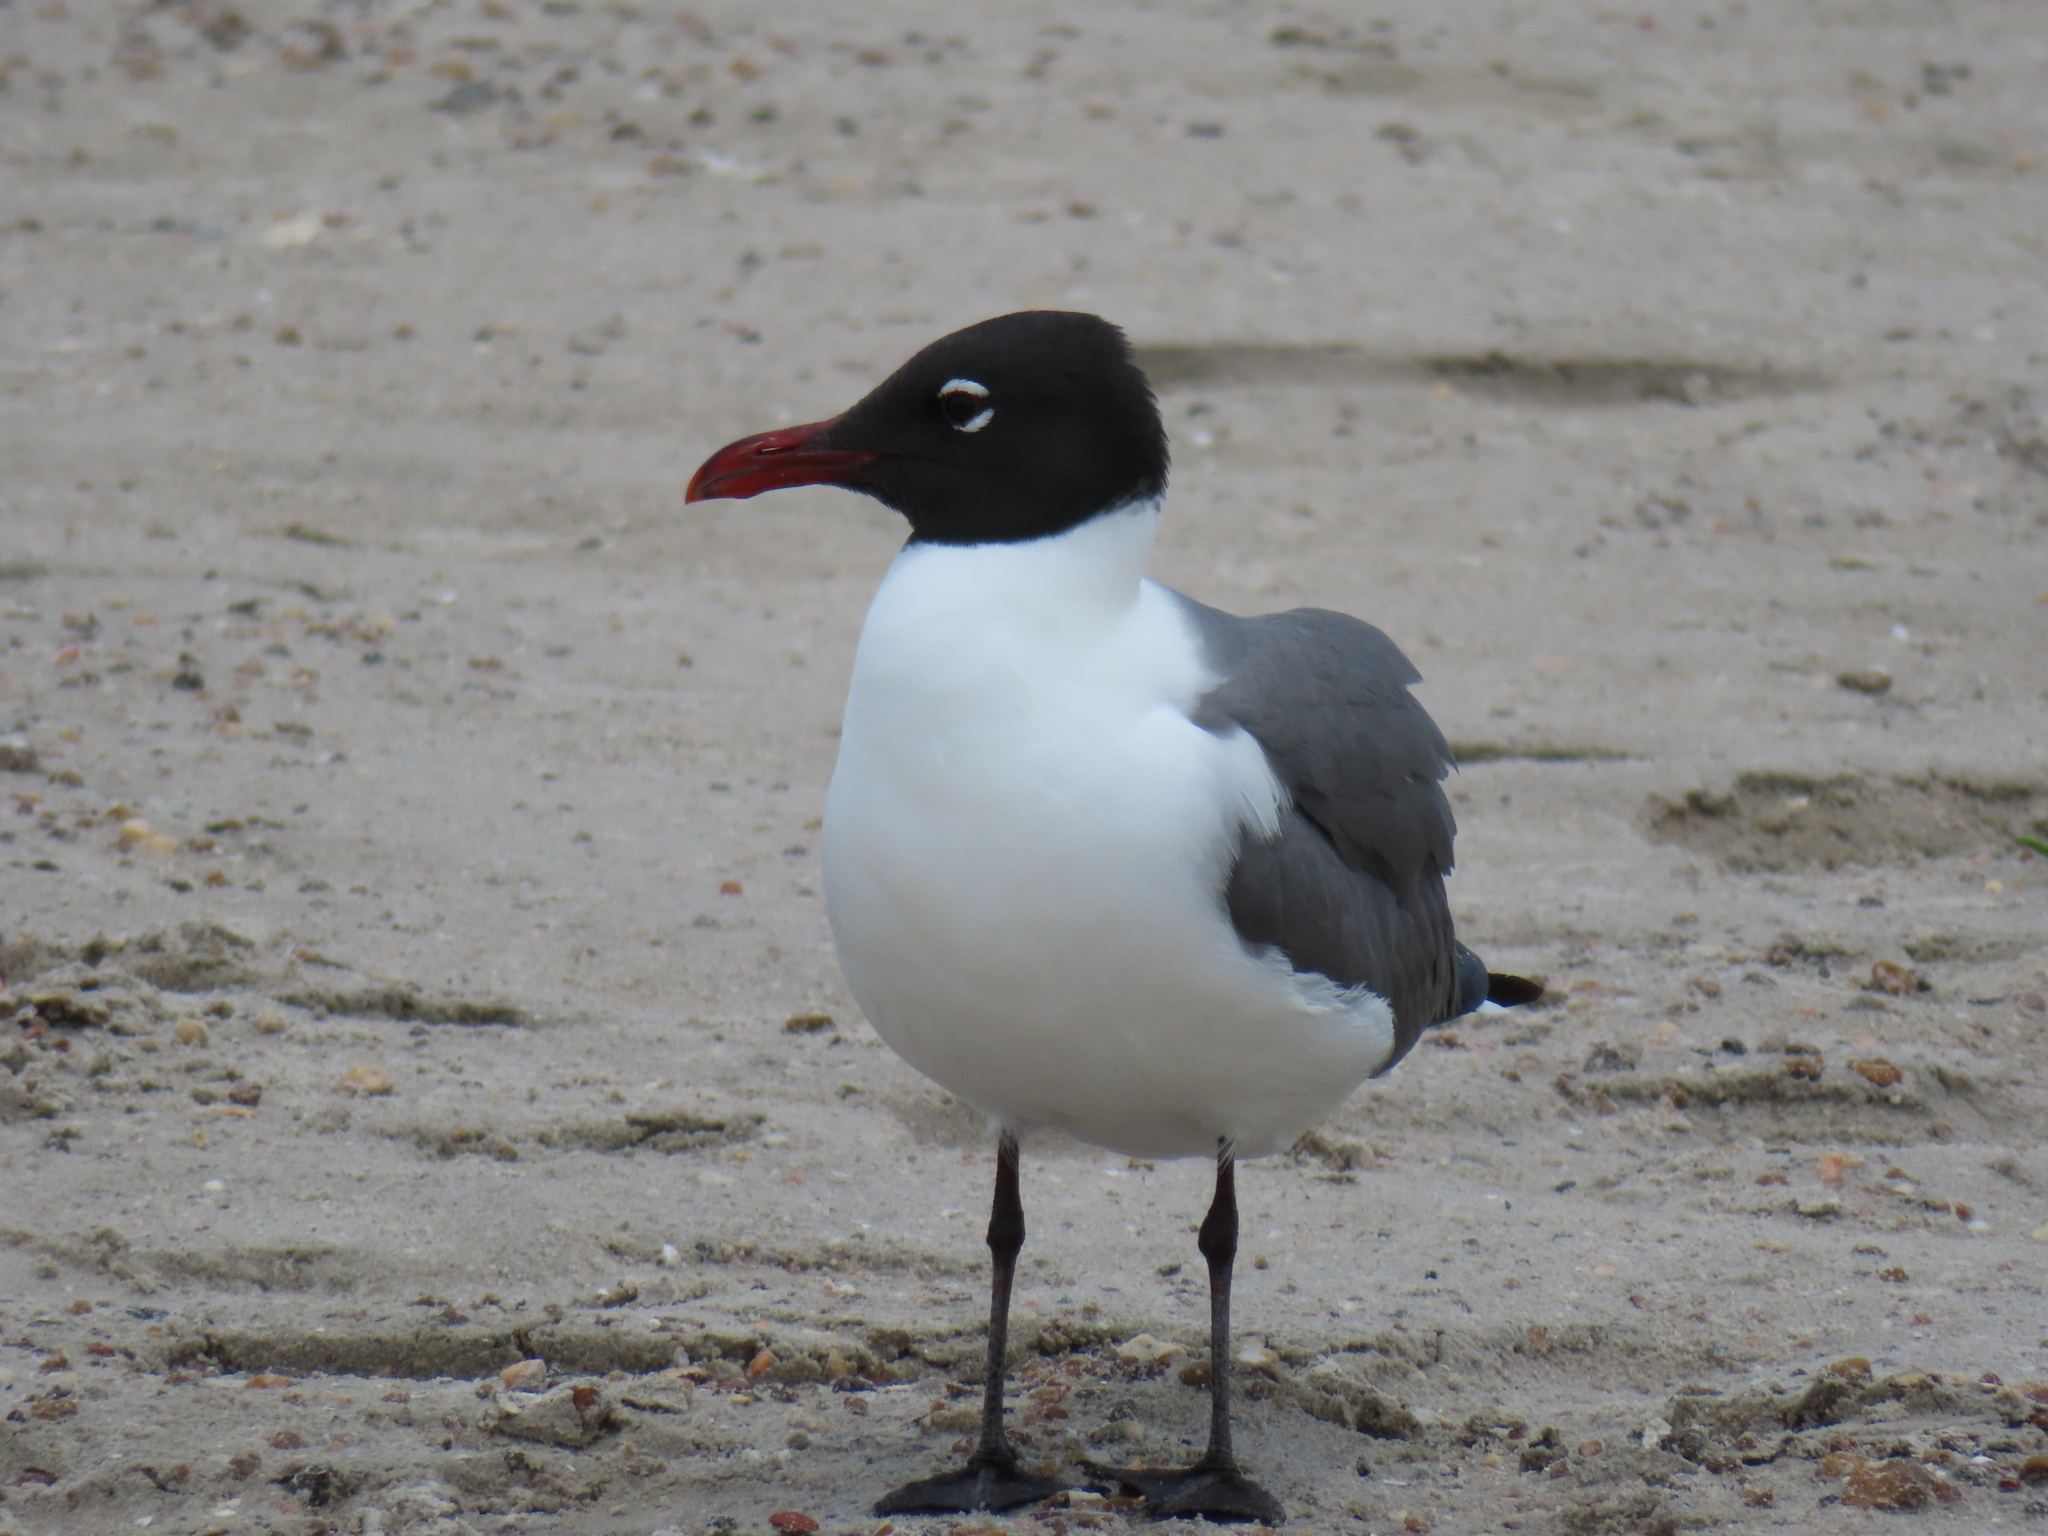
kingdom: Animalia
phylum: Chordata
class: Aves
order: Charadriiformes
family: Laridae
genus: Leucophaeus
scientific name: Leucophaeus atricilla
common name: Laughing gull
